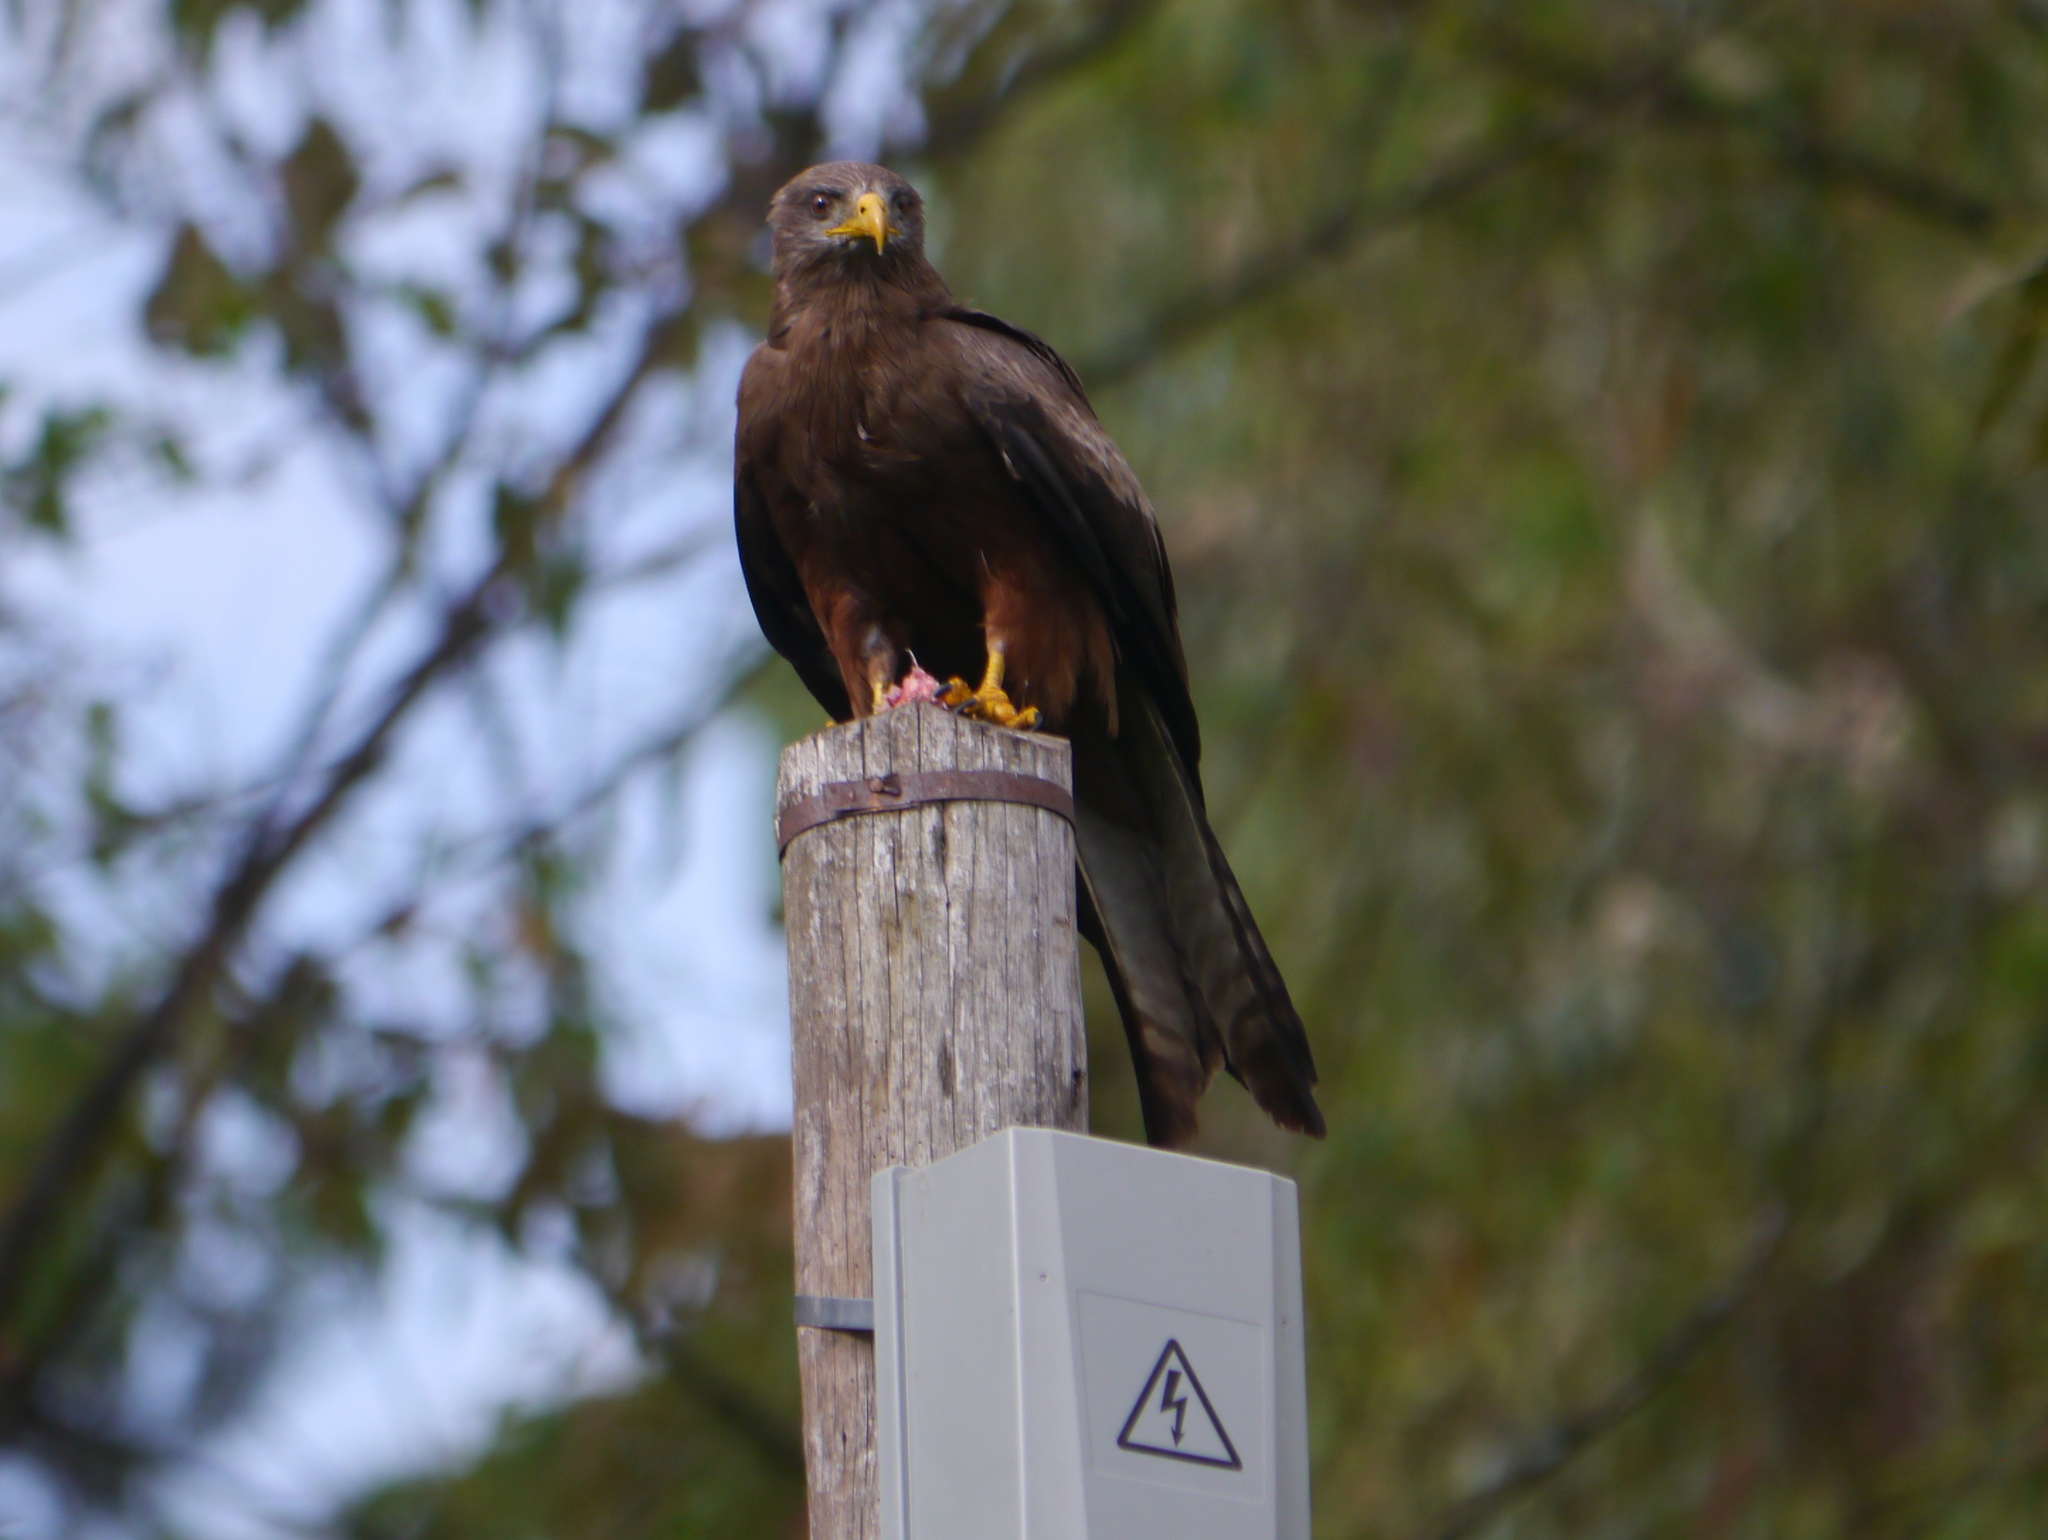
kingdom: Animalia
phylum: Chordata
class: Aves
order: Accipitriformes
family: Accipitridae
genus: Milvus
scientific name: Milvus migrans
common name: Black kite
